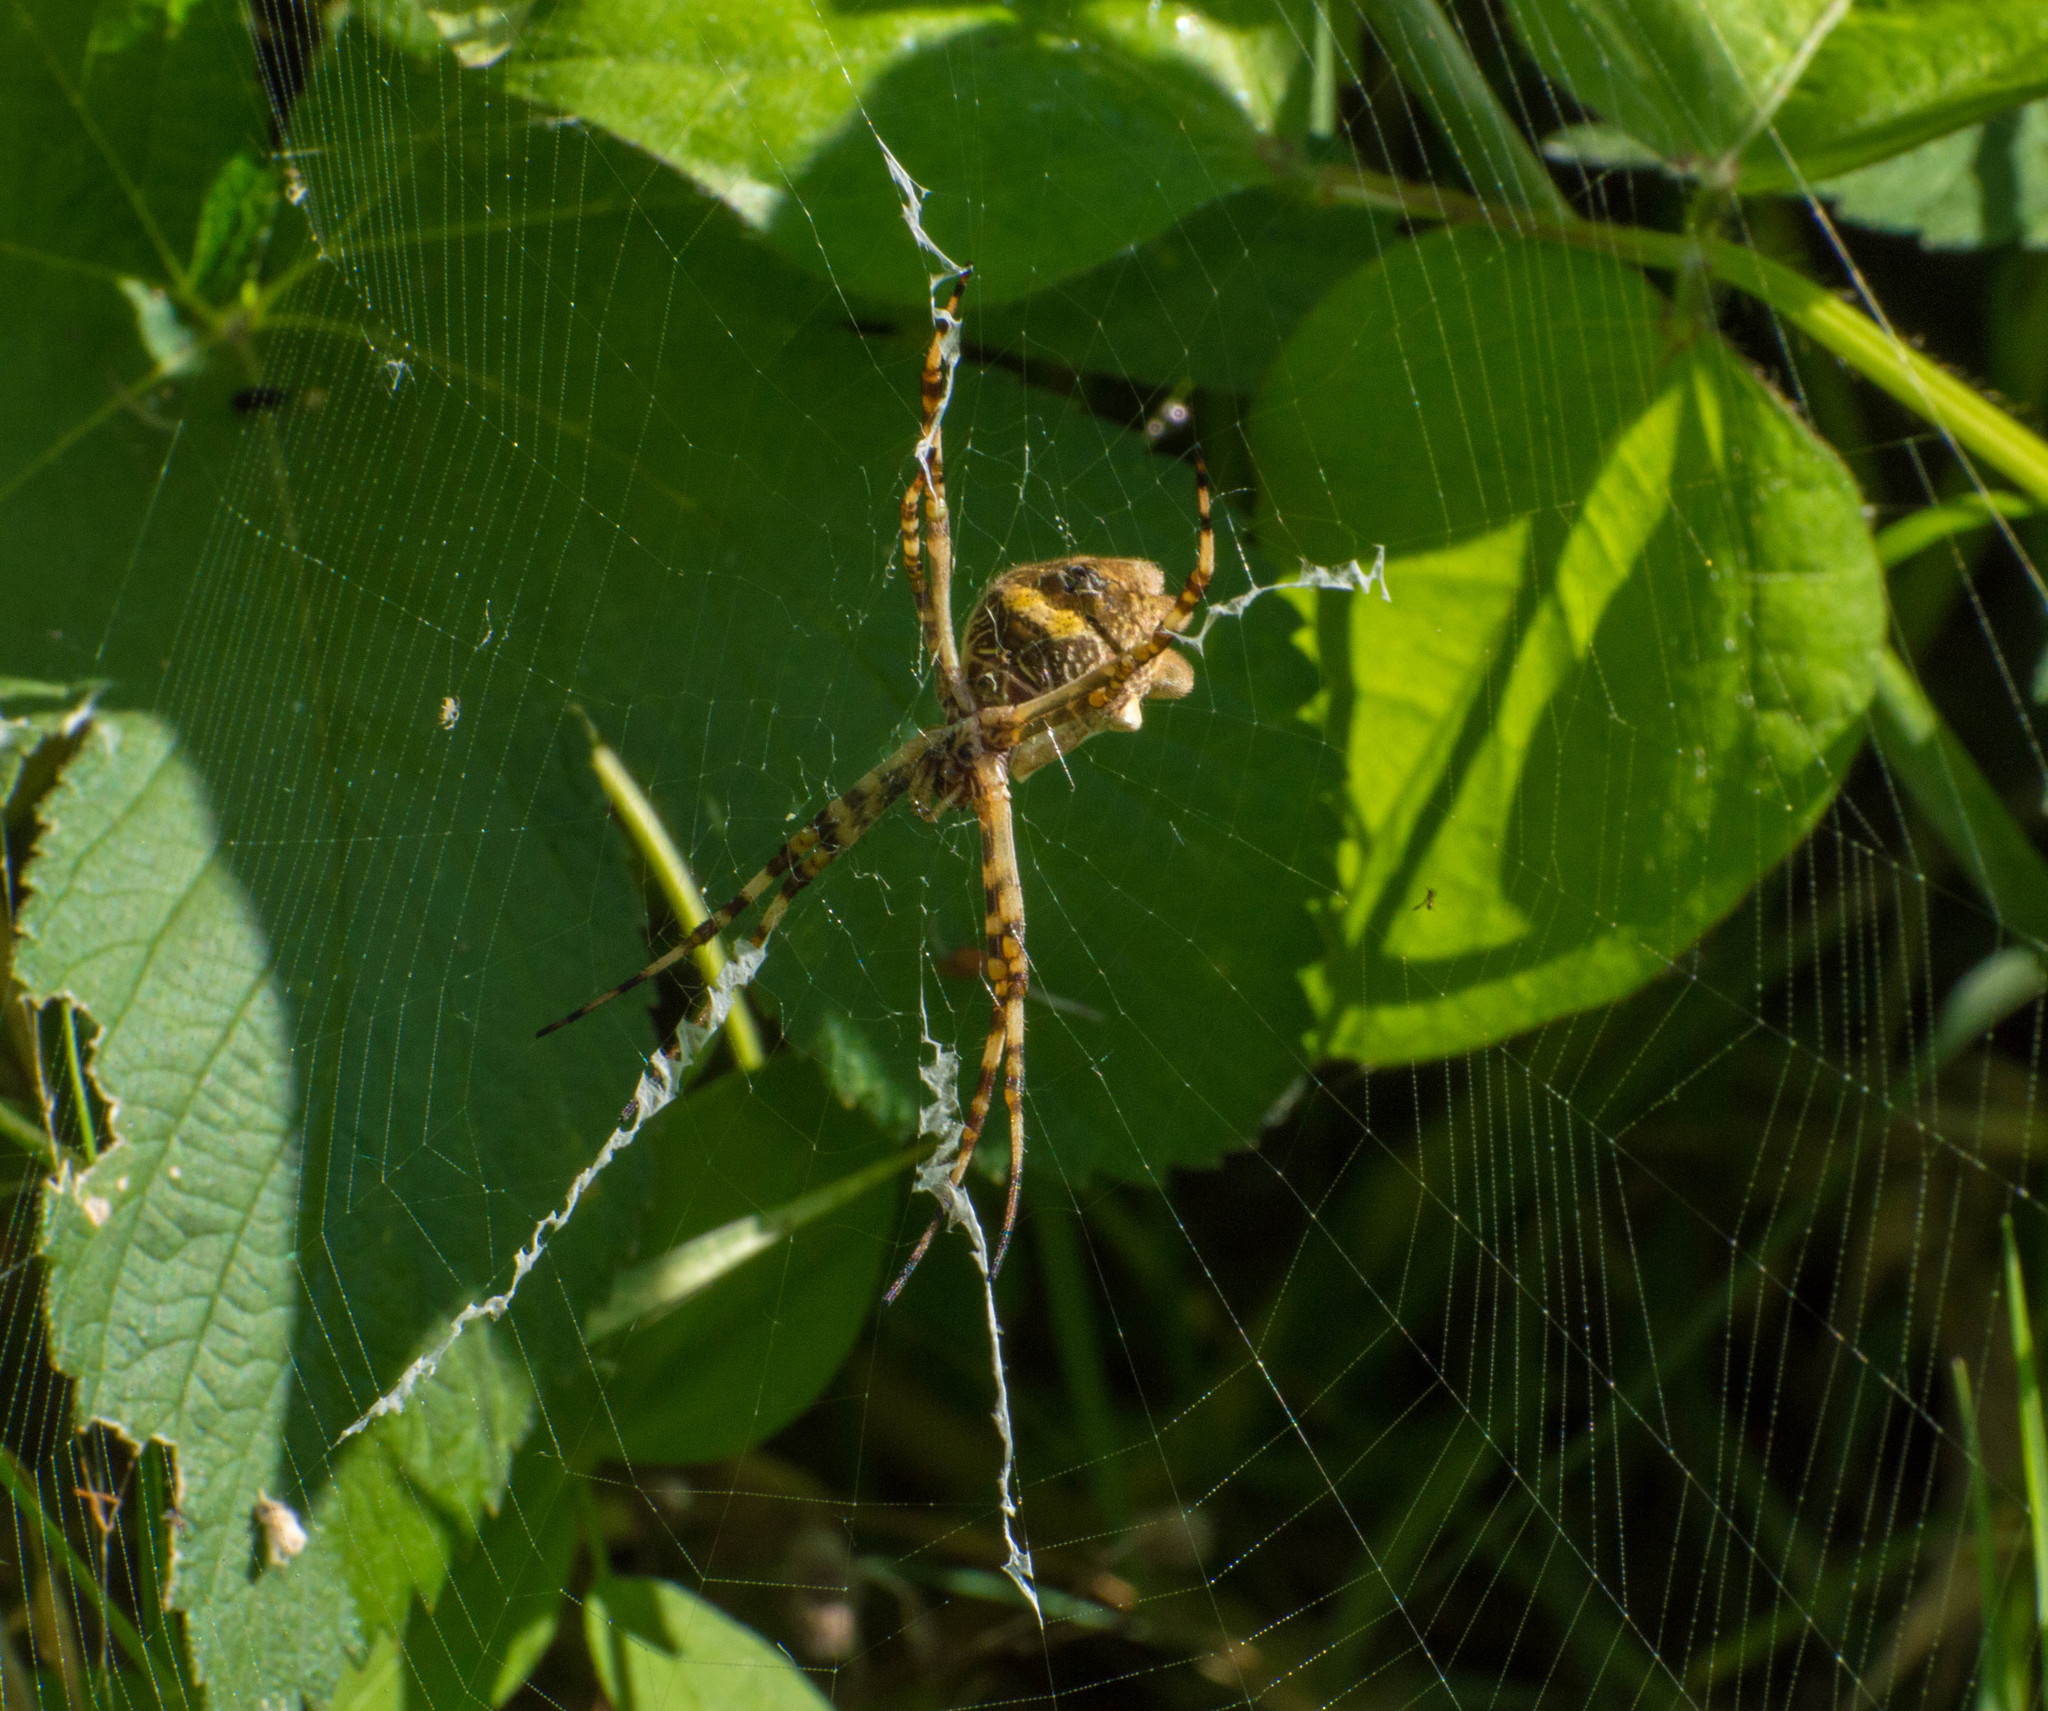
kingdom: Animalia
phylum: Arthropoda
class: Arachnida
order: Araneae
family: Araneidae
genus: Argiope
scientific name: Argiope argentata
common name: Orb weavers
